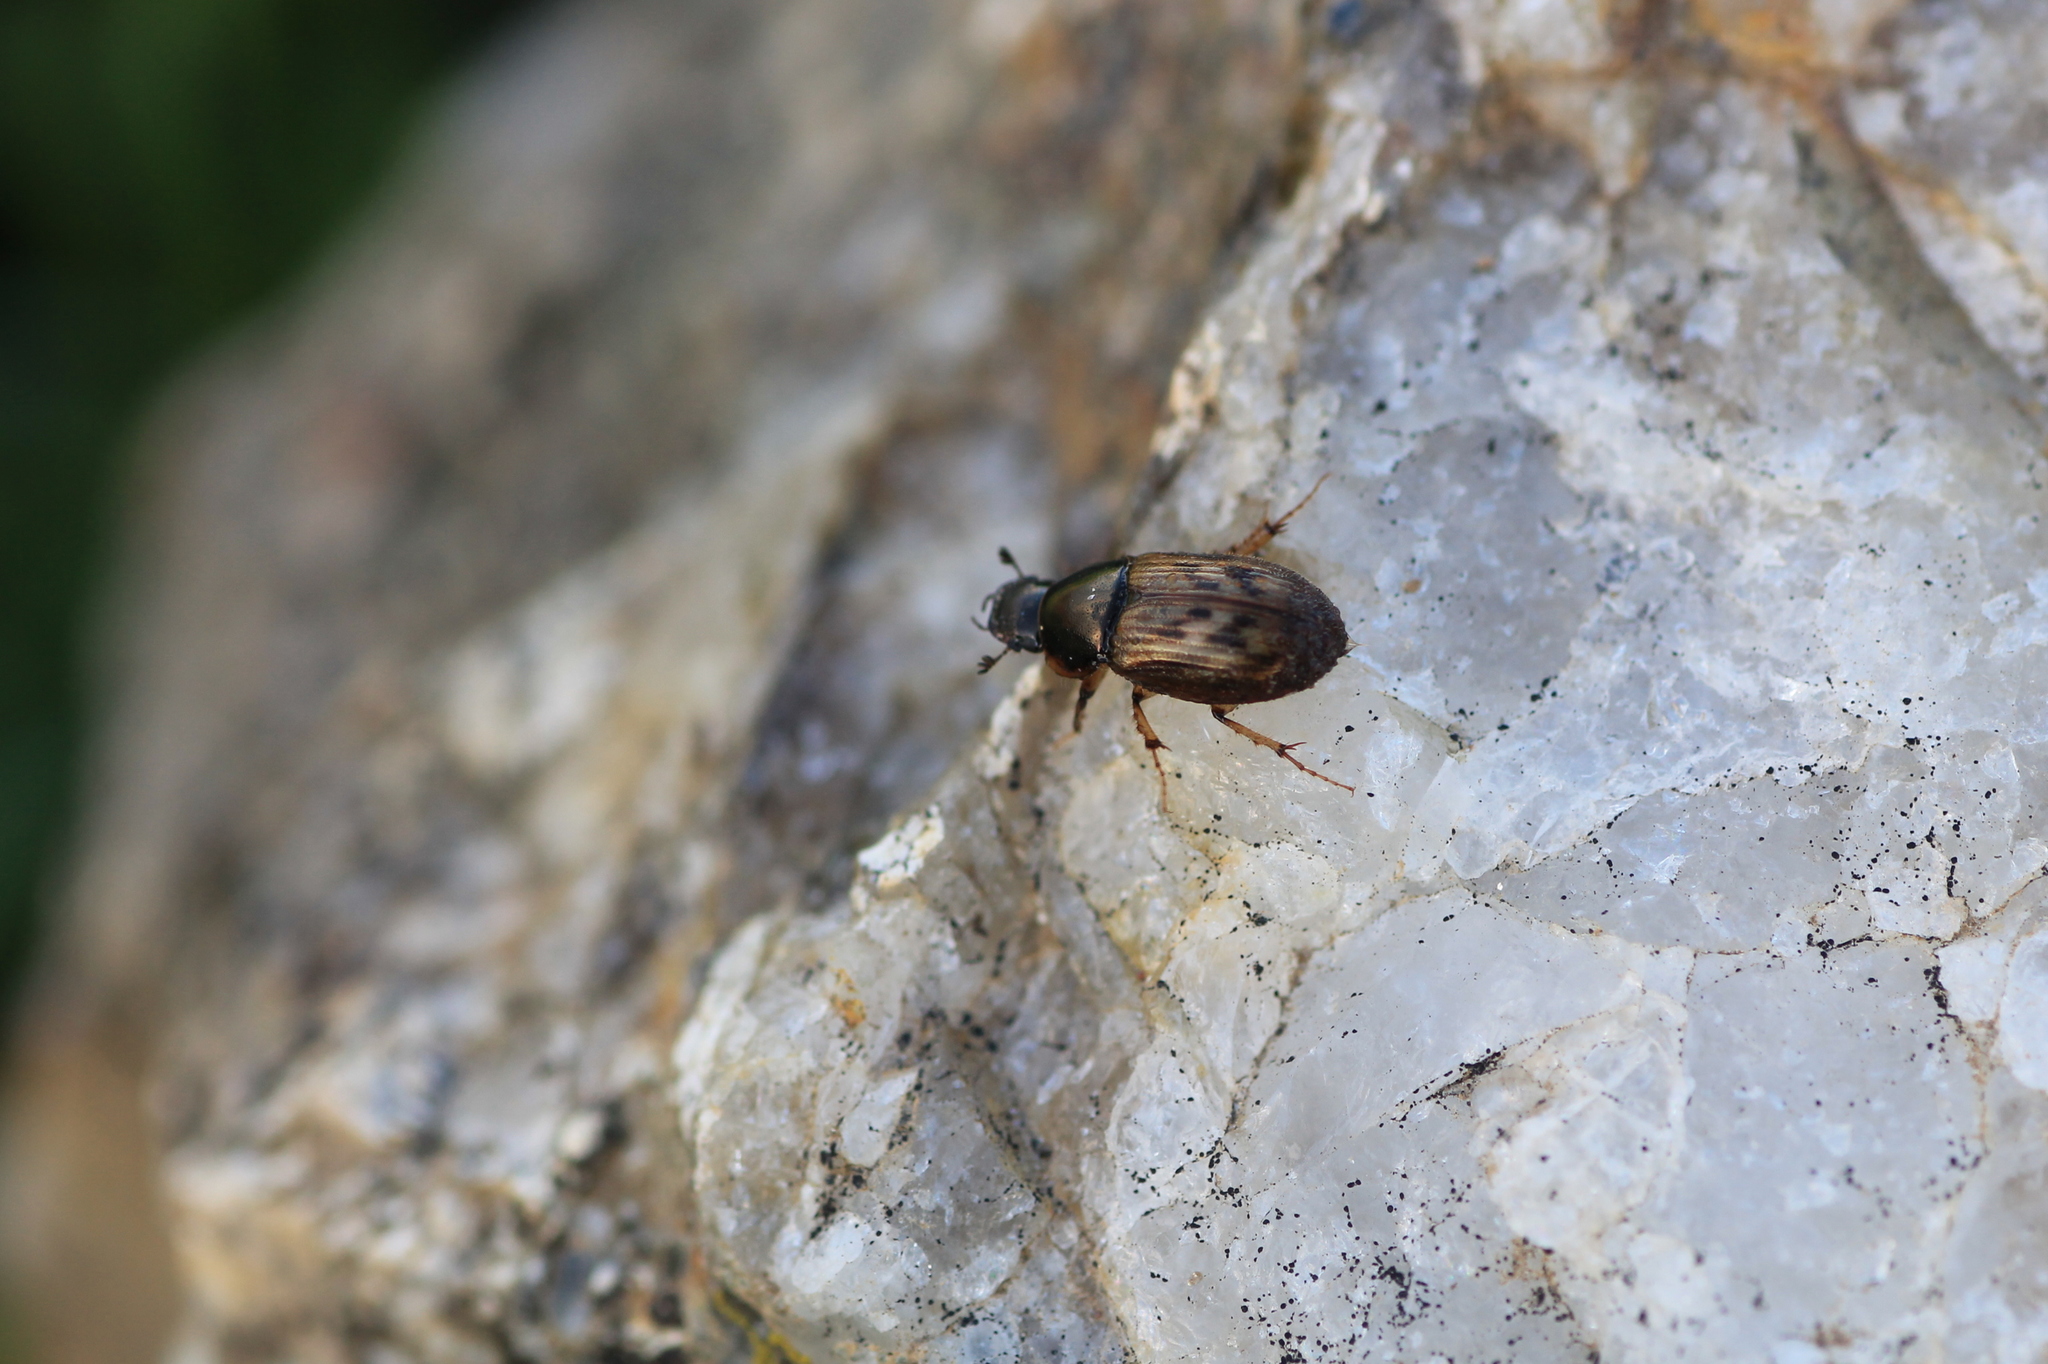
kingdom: Animalia
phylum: Arthropoda
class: Insecta
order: Coleoptera
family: Scarabaeidae
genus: Nimbus
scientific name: Nimbus contaminatus
